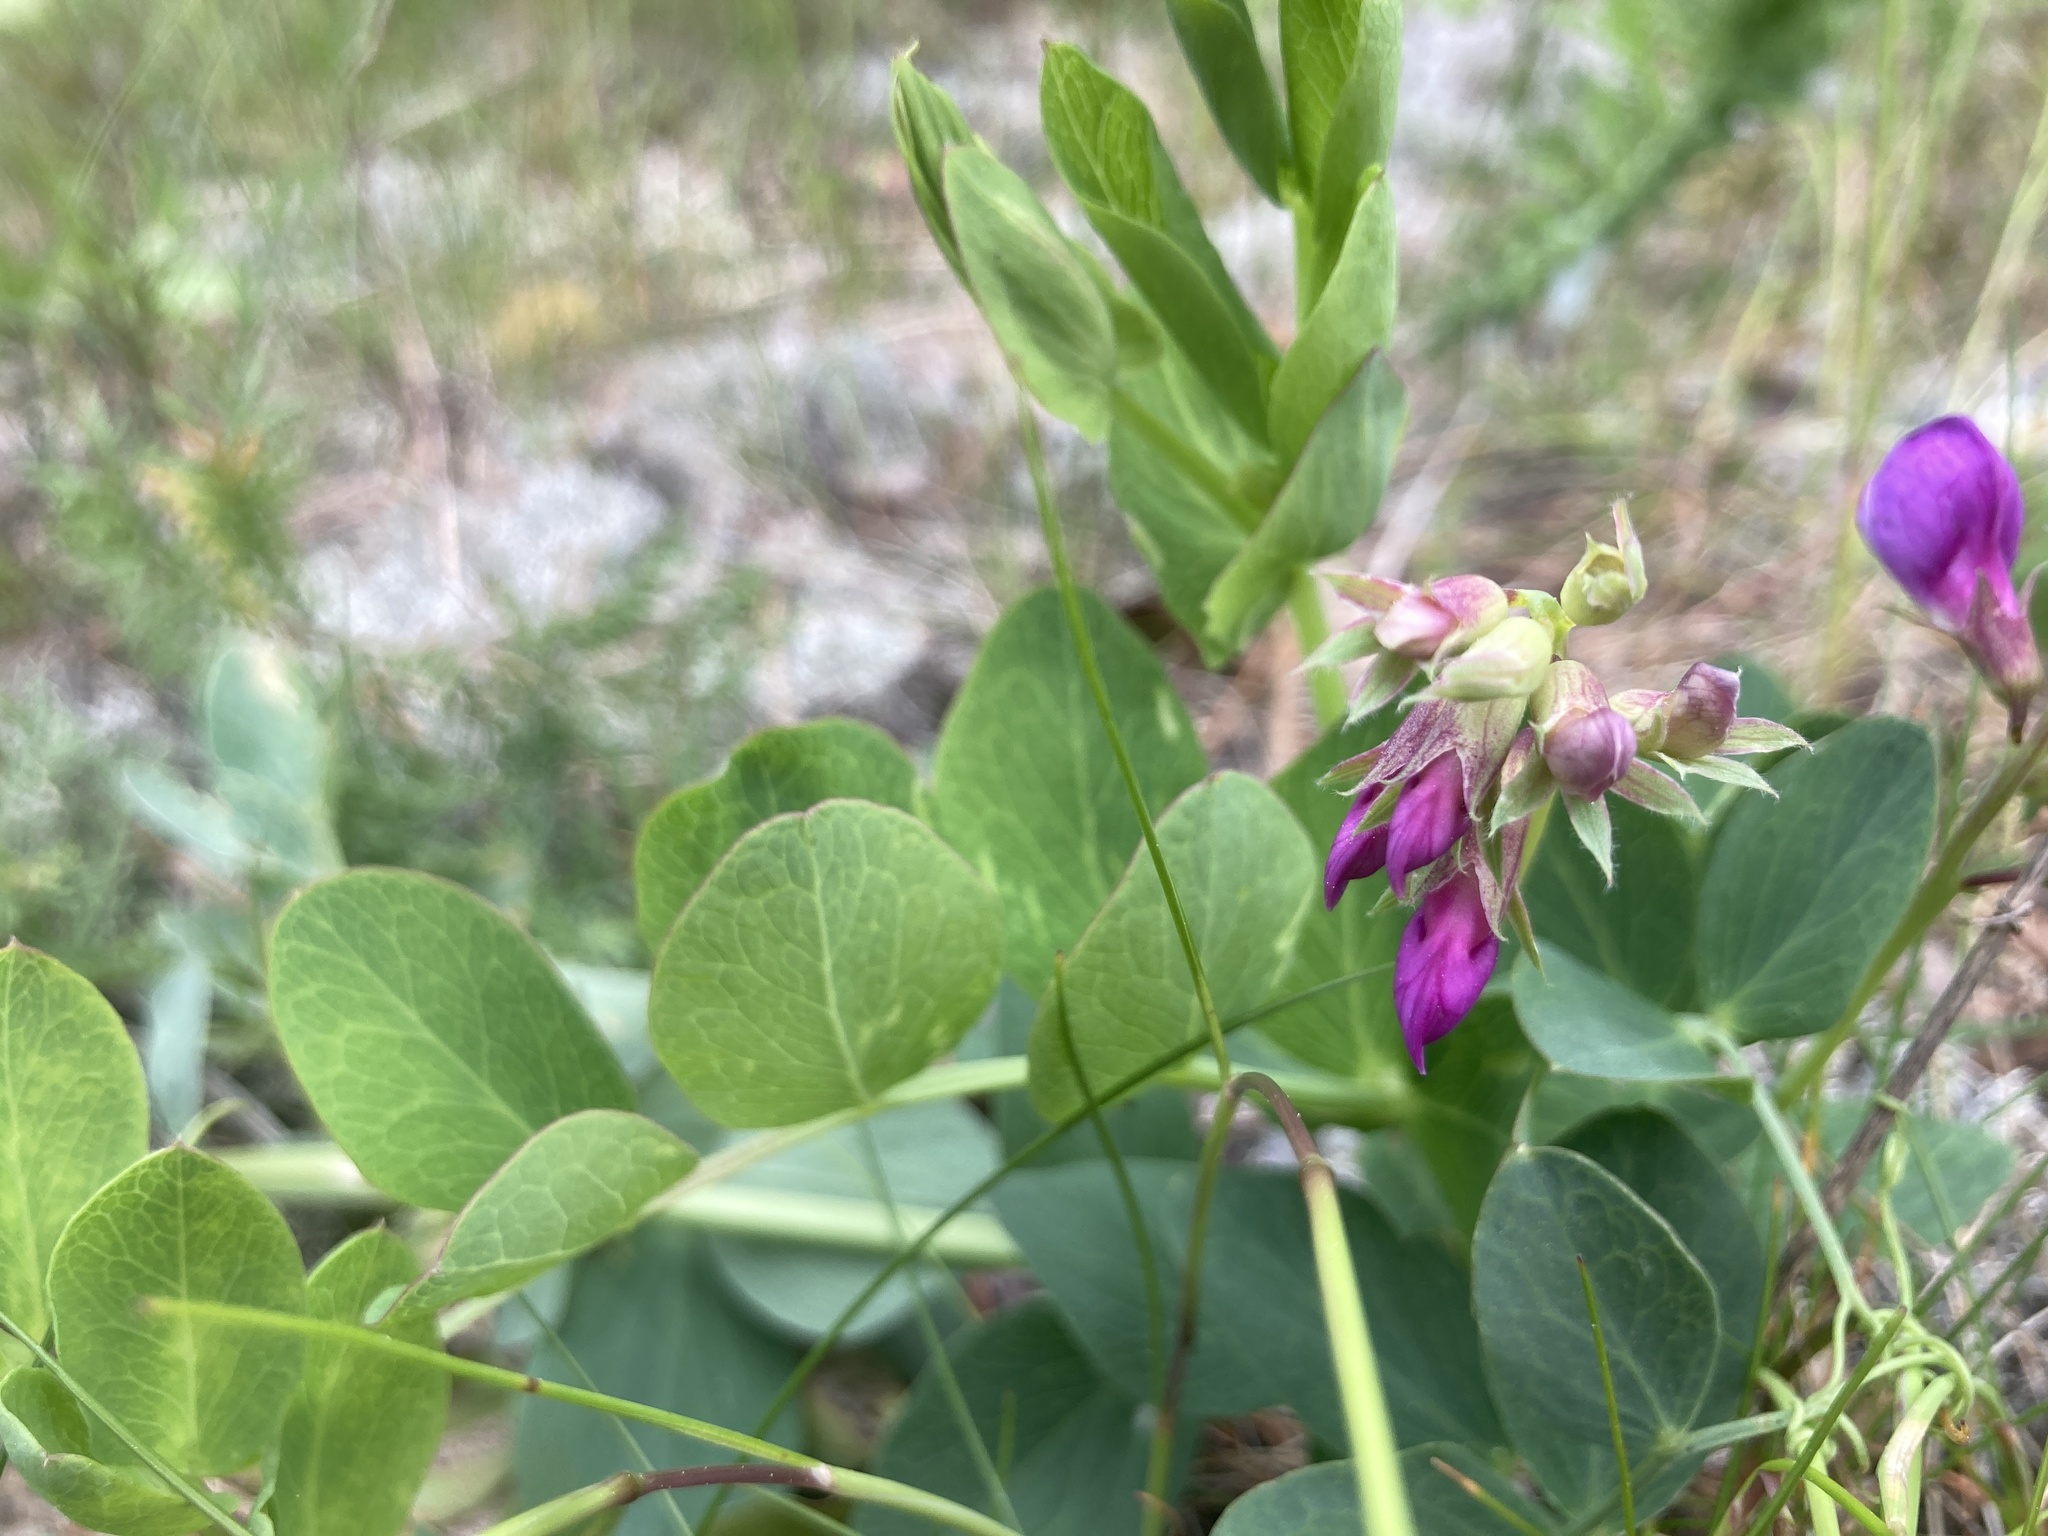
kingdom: Plantae
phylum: Tracheophyta
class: Magnoliopsida
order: Fabales
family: Fabaceae
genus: Lathyrus
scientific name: Lathyrus japonicus
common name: Sea pea
